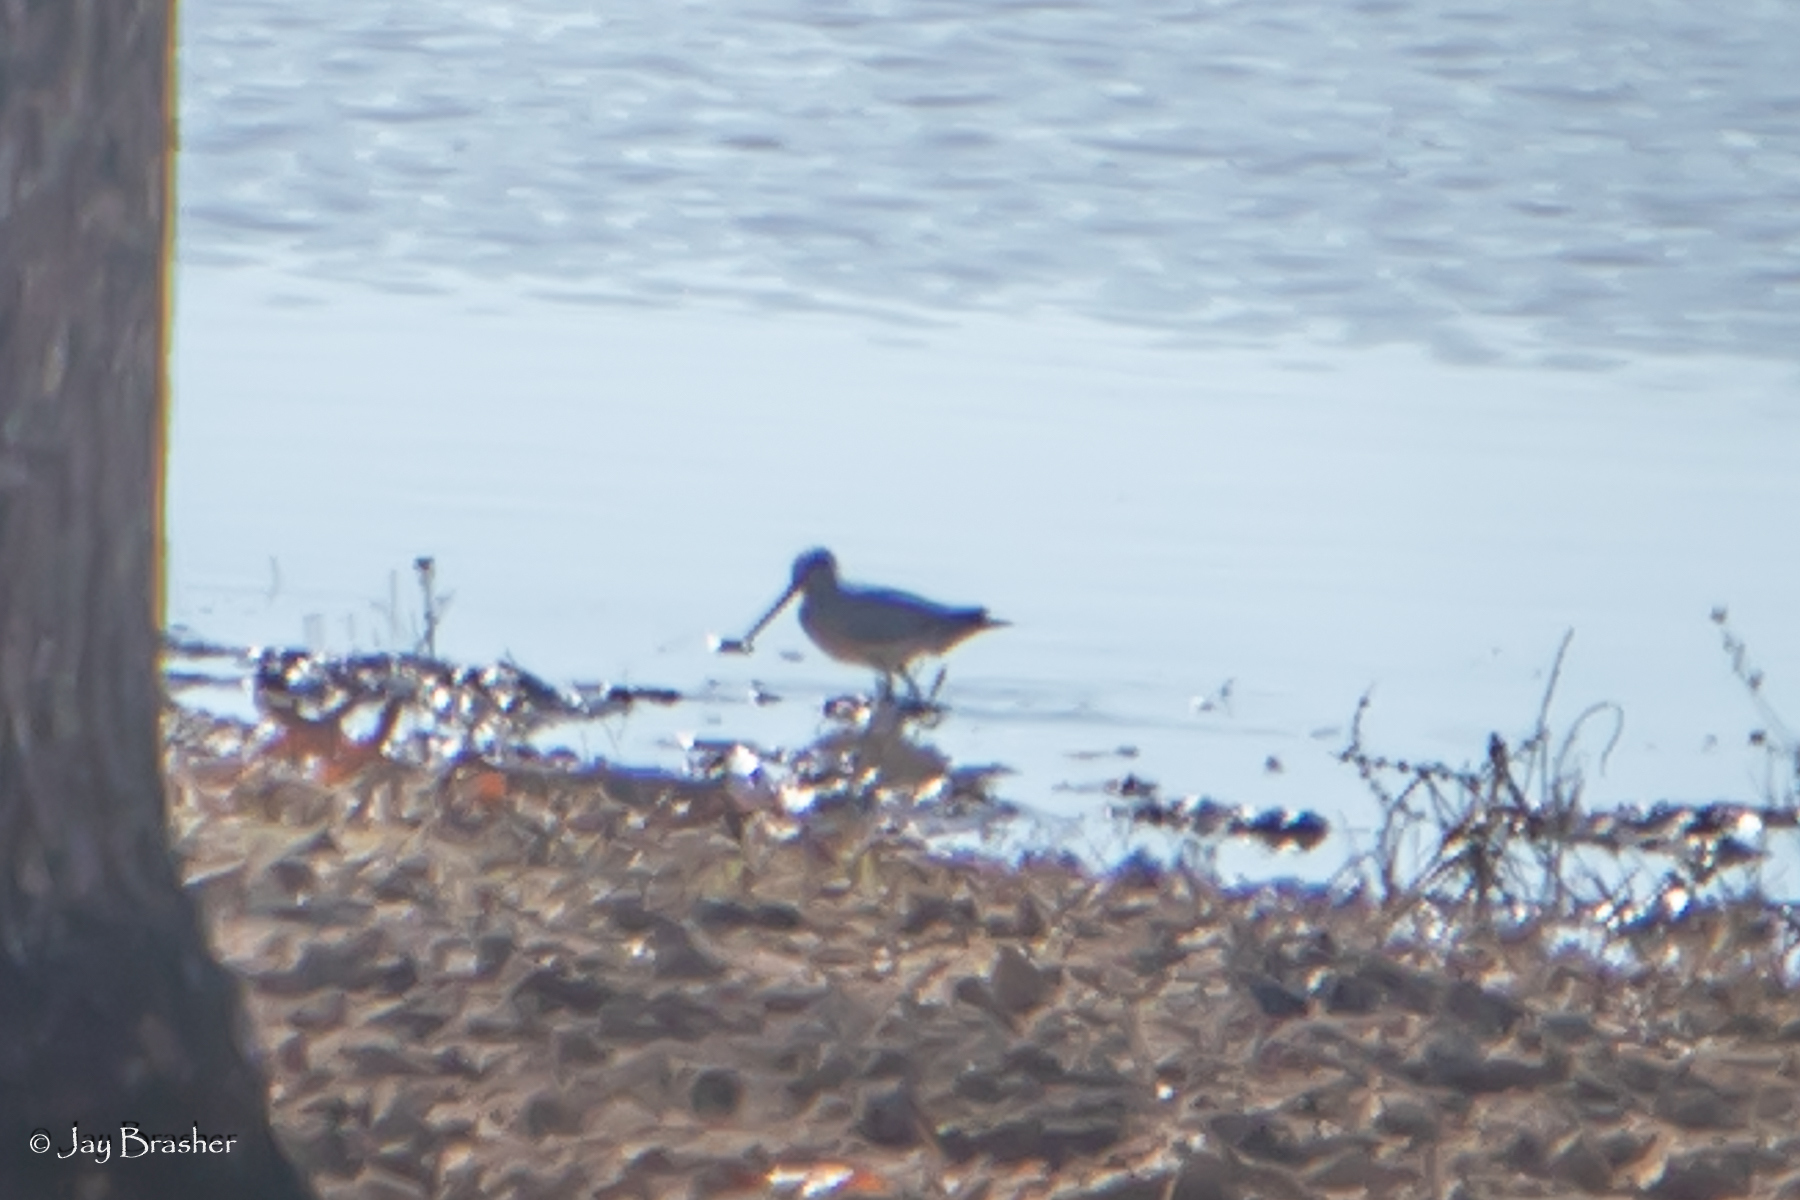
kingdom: Animalia
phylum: Chordata
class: Aves
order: Charadriiformes
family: Scolopacidae
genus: Gallinago
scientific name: Gallinago delicata
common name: Wilson's snipe
